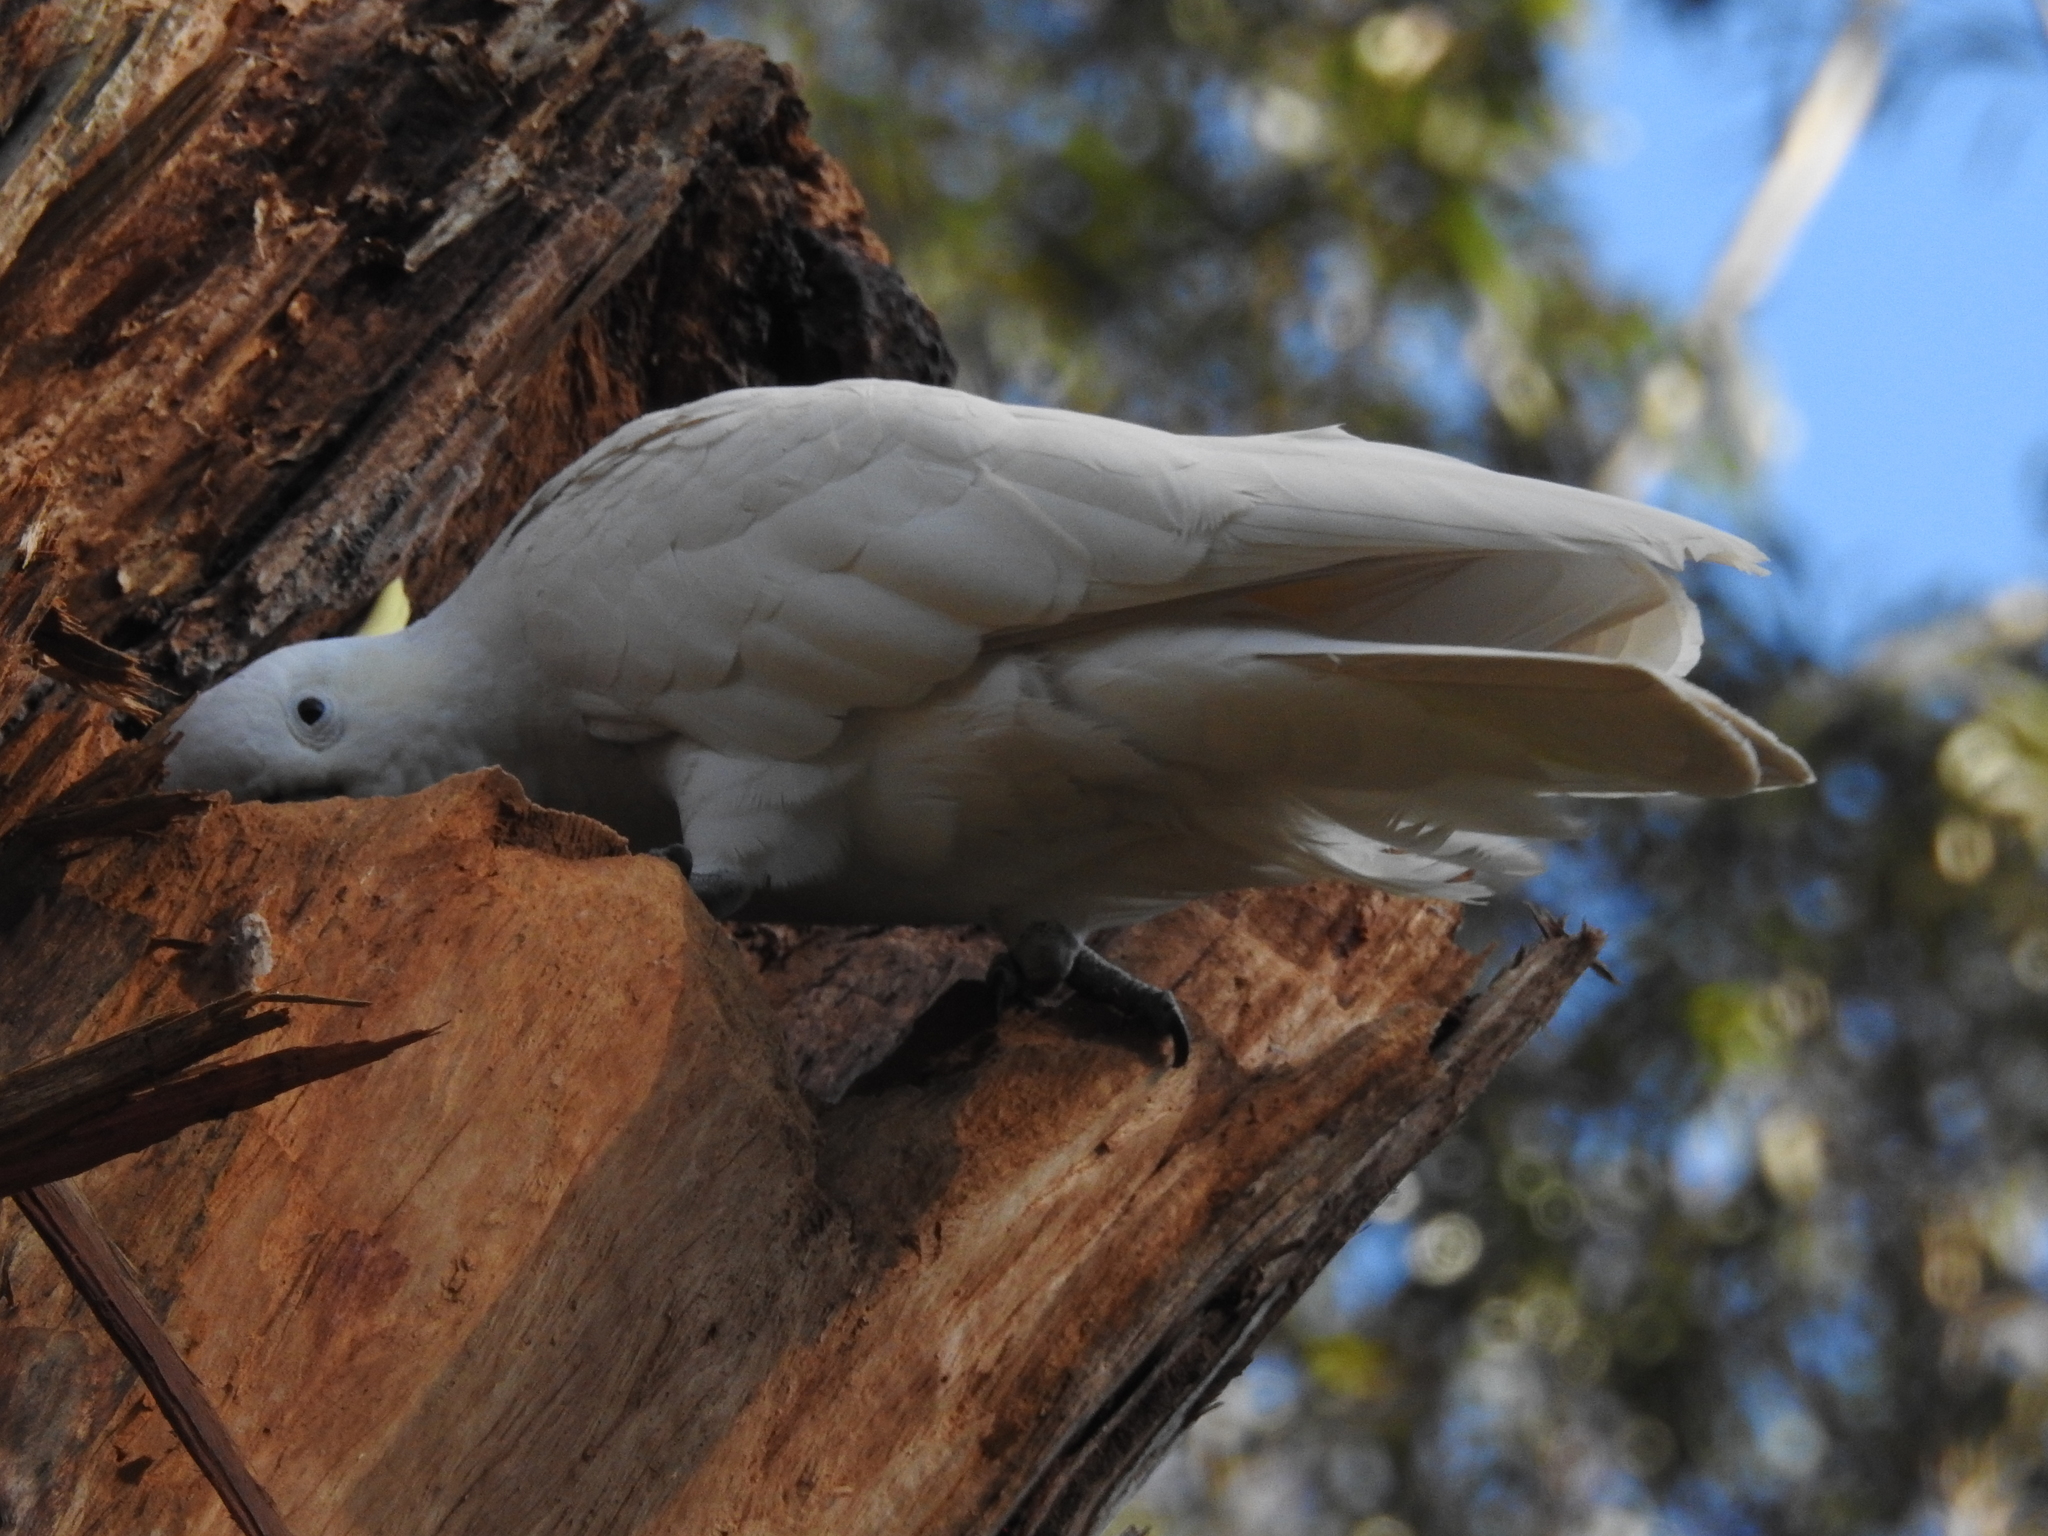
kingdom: Animalia
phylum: Chordata
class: Aves
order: Psittaciformes
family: Psittacidae
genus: Cacatua
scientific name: Cacatua galerita
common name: Sulphur-crested cockatoo
